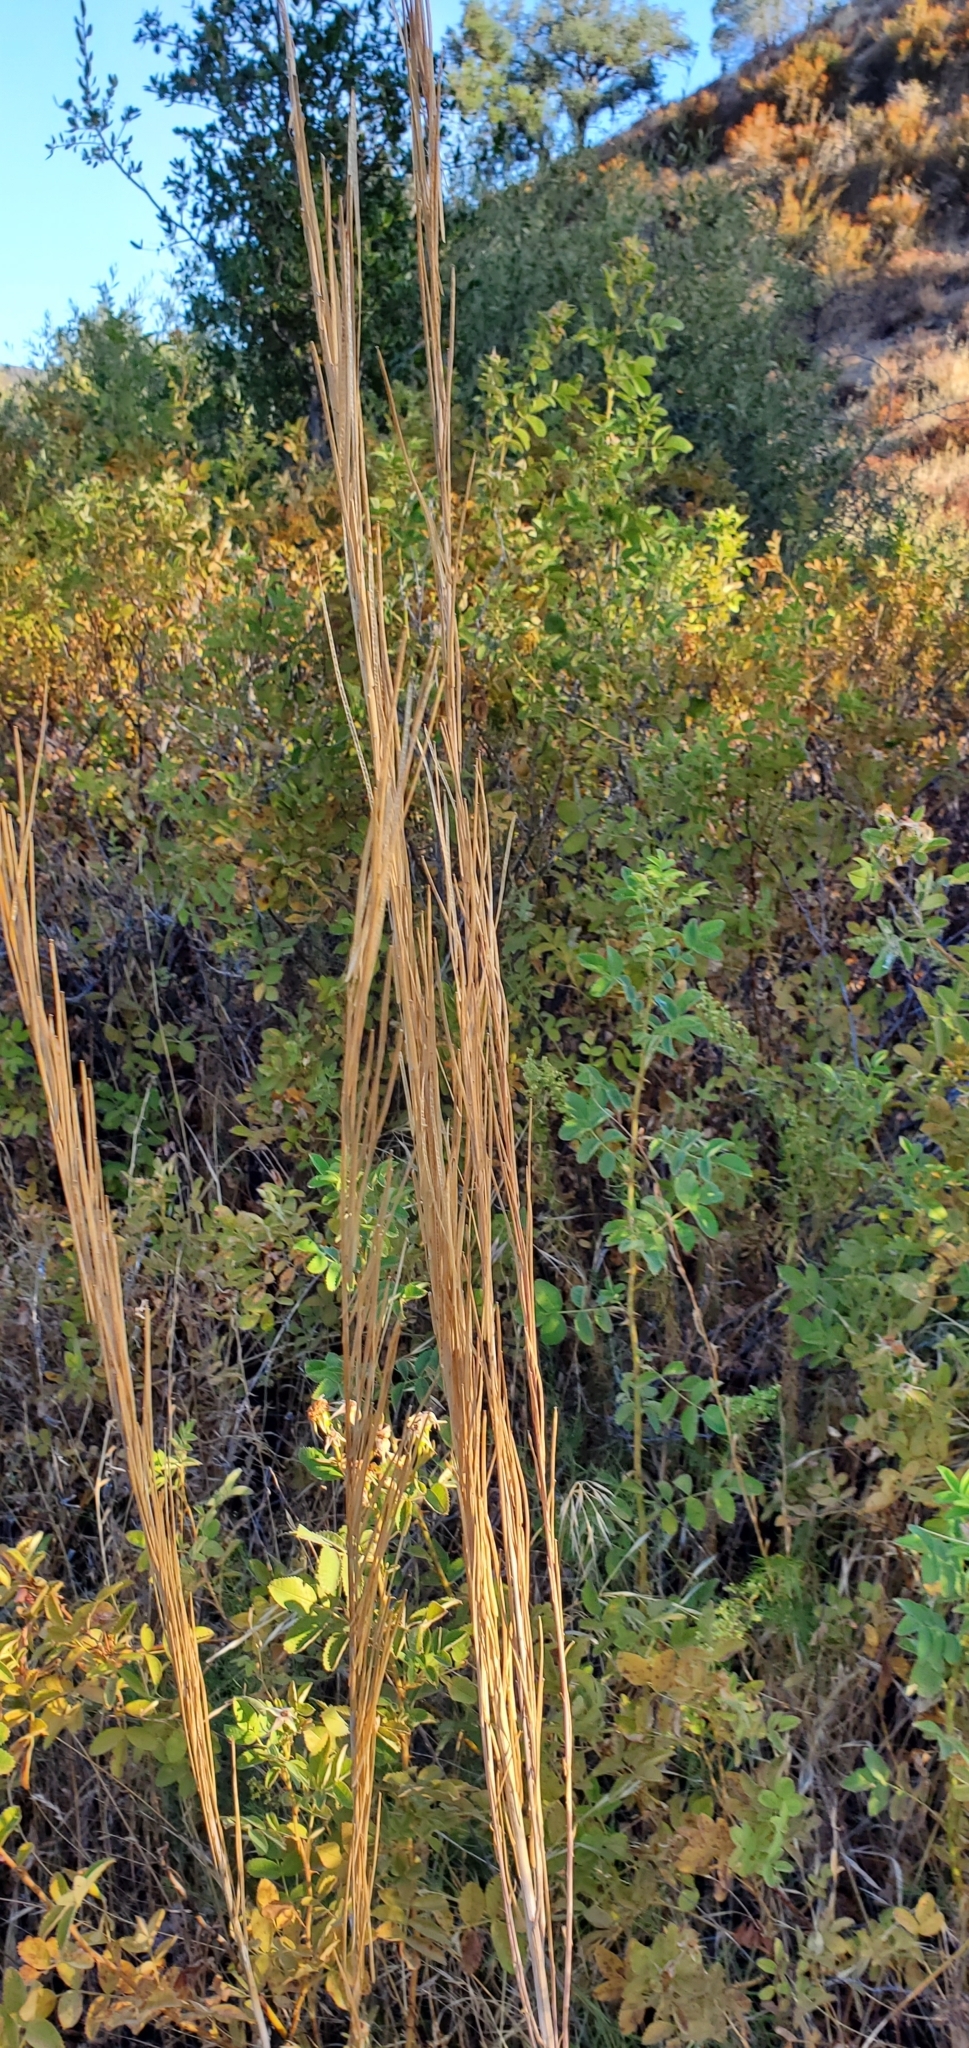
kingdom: Plantae
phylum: Tracheophyta
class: Magnoliopsida
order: Brassicales
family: Brassicaceae
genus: Turritis
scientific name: Turritis glabra
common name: Tower rockcress
